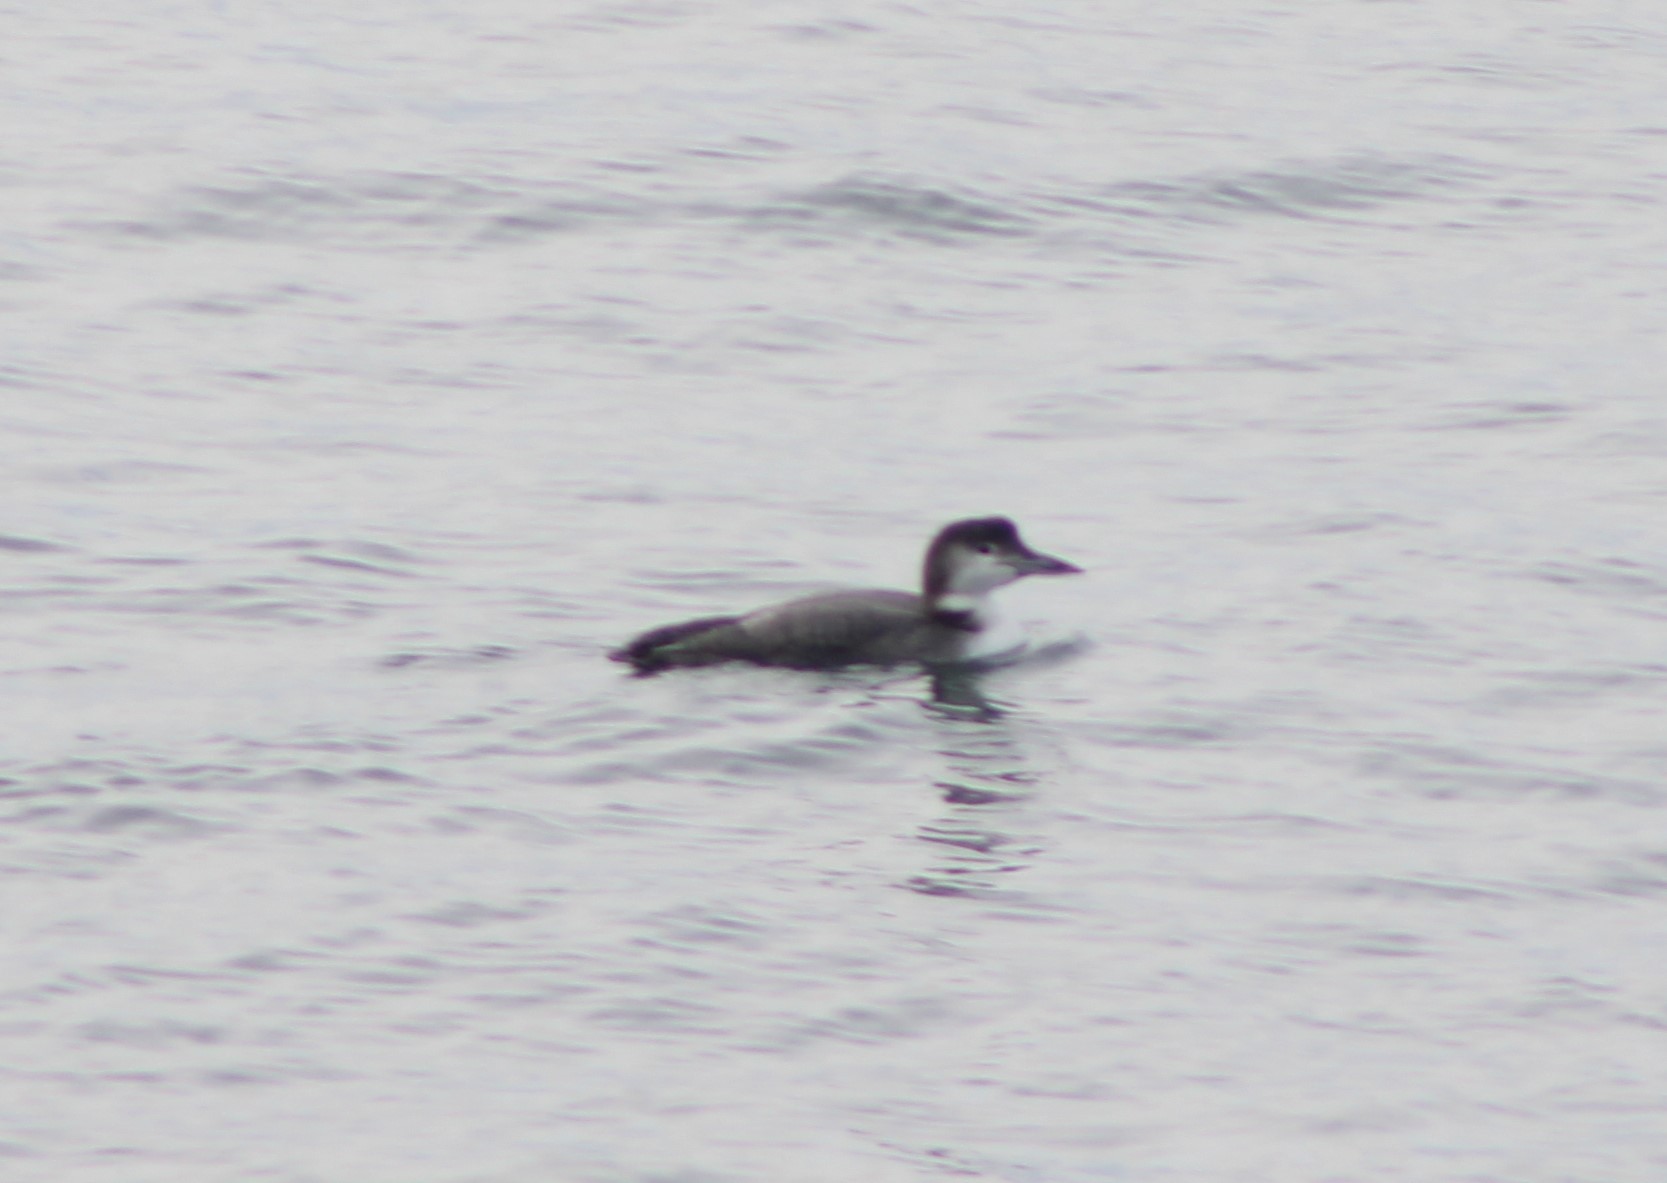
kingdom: Animalia
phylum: Chordata
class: Aves
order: Gaviiformes
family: Gaviidae
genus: Gavia
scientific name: Gavia immer
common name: Common loon
